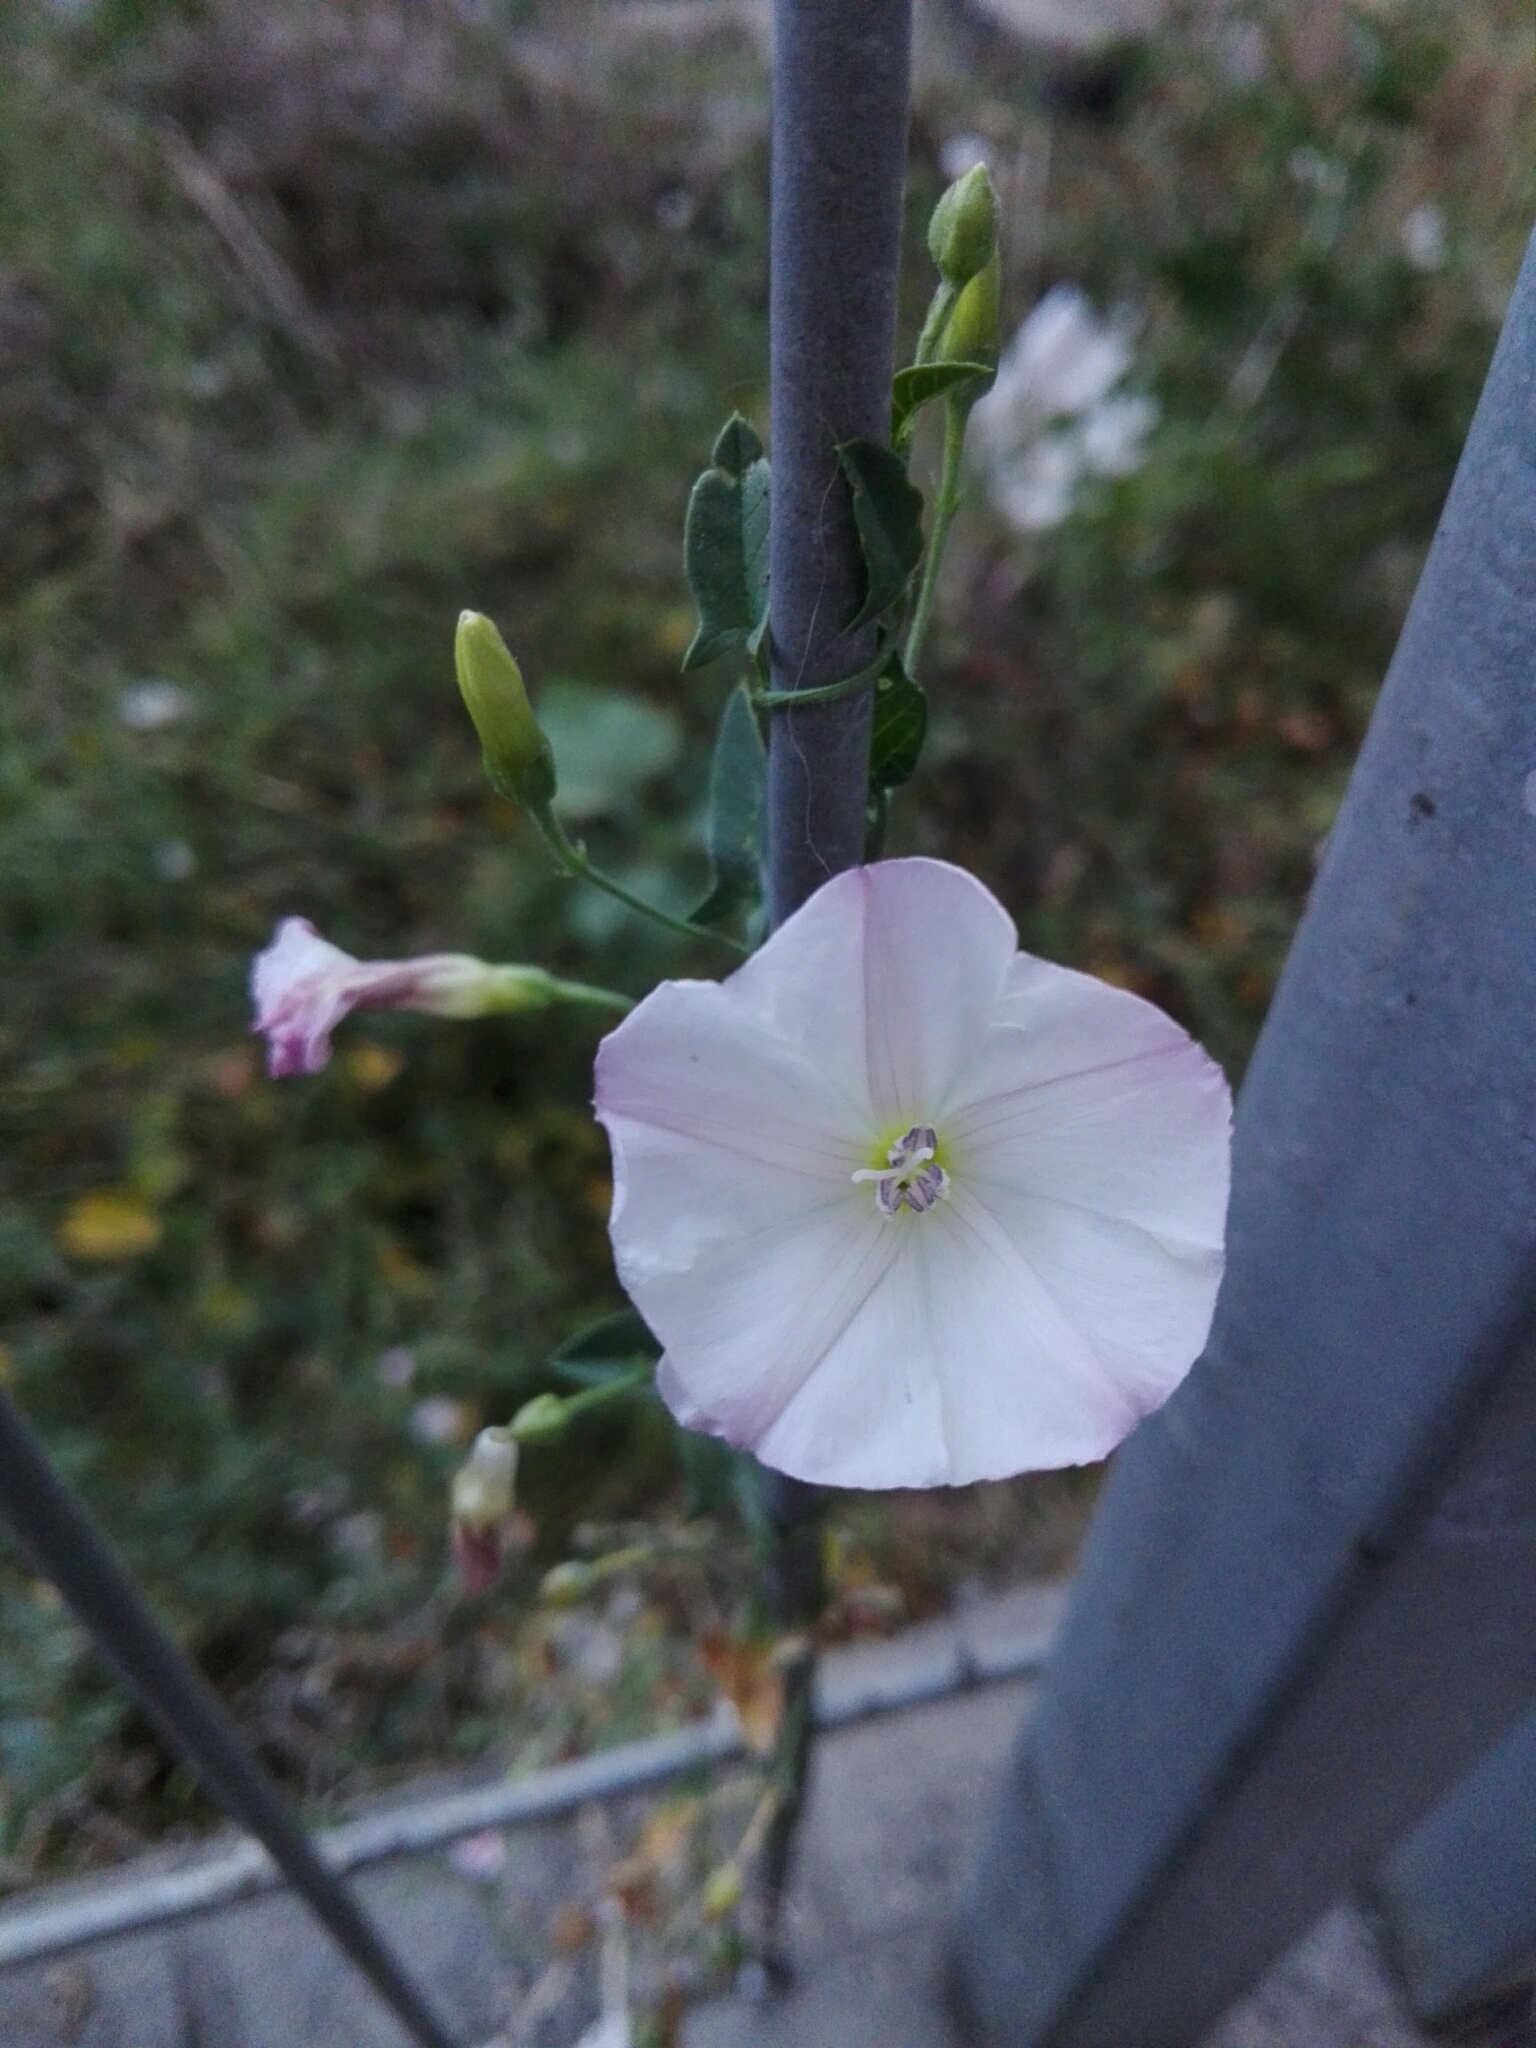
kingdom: Plantae
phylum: Tracheophyta
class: Magnoliopsida
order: Solanales
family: Convolvulaceae
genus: Convolvulus
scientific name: Convolvulus arvensis
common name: Field bindweed
